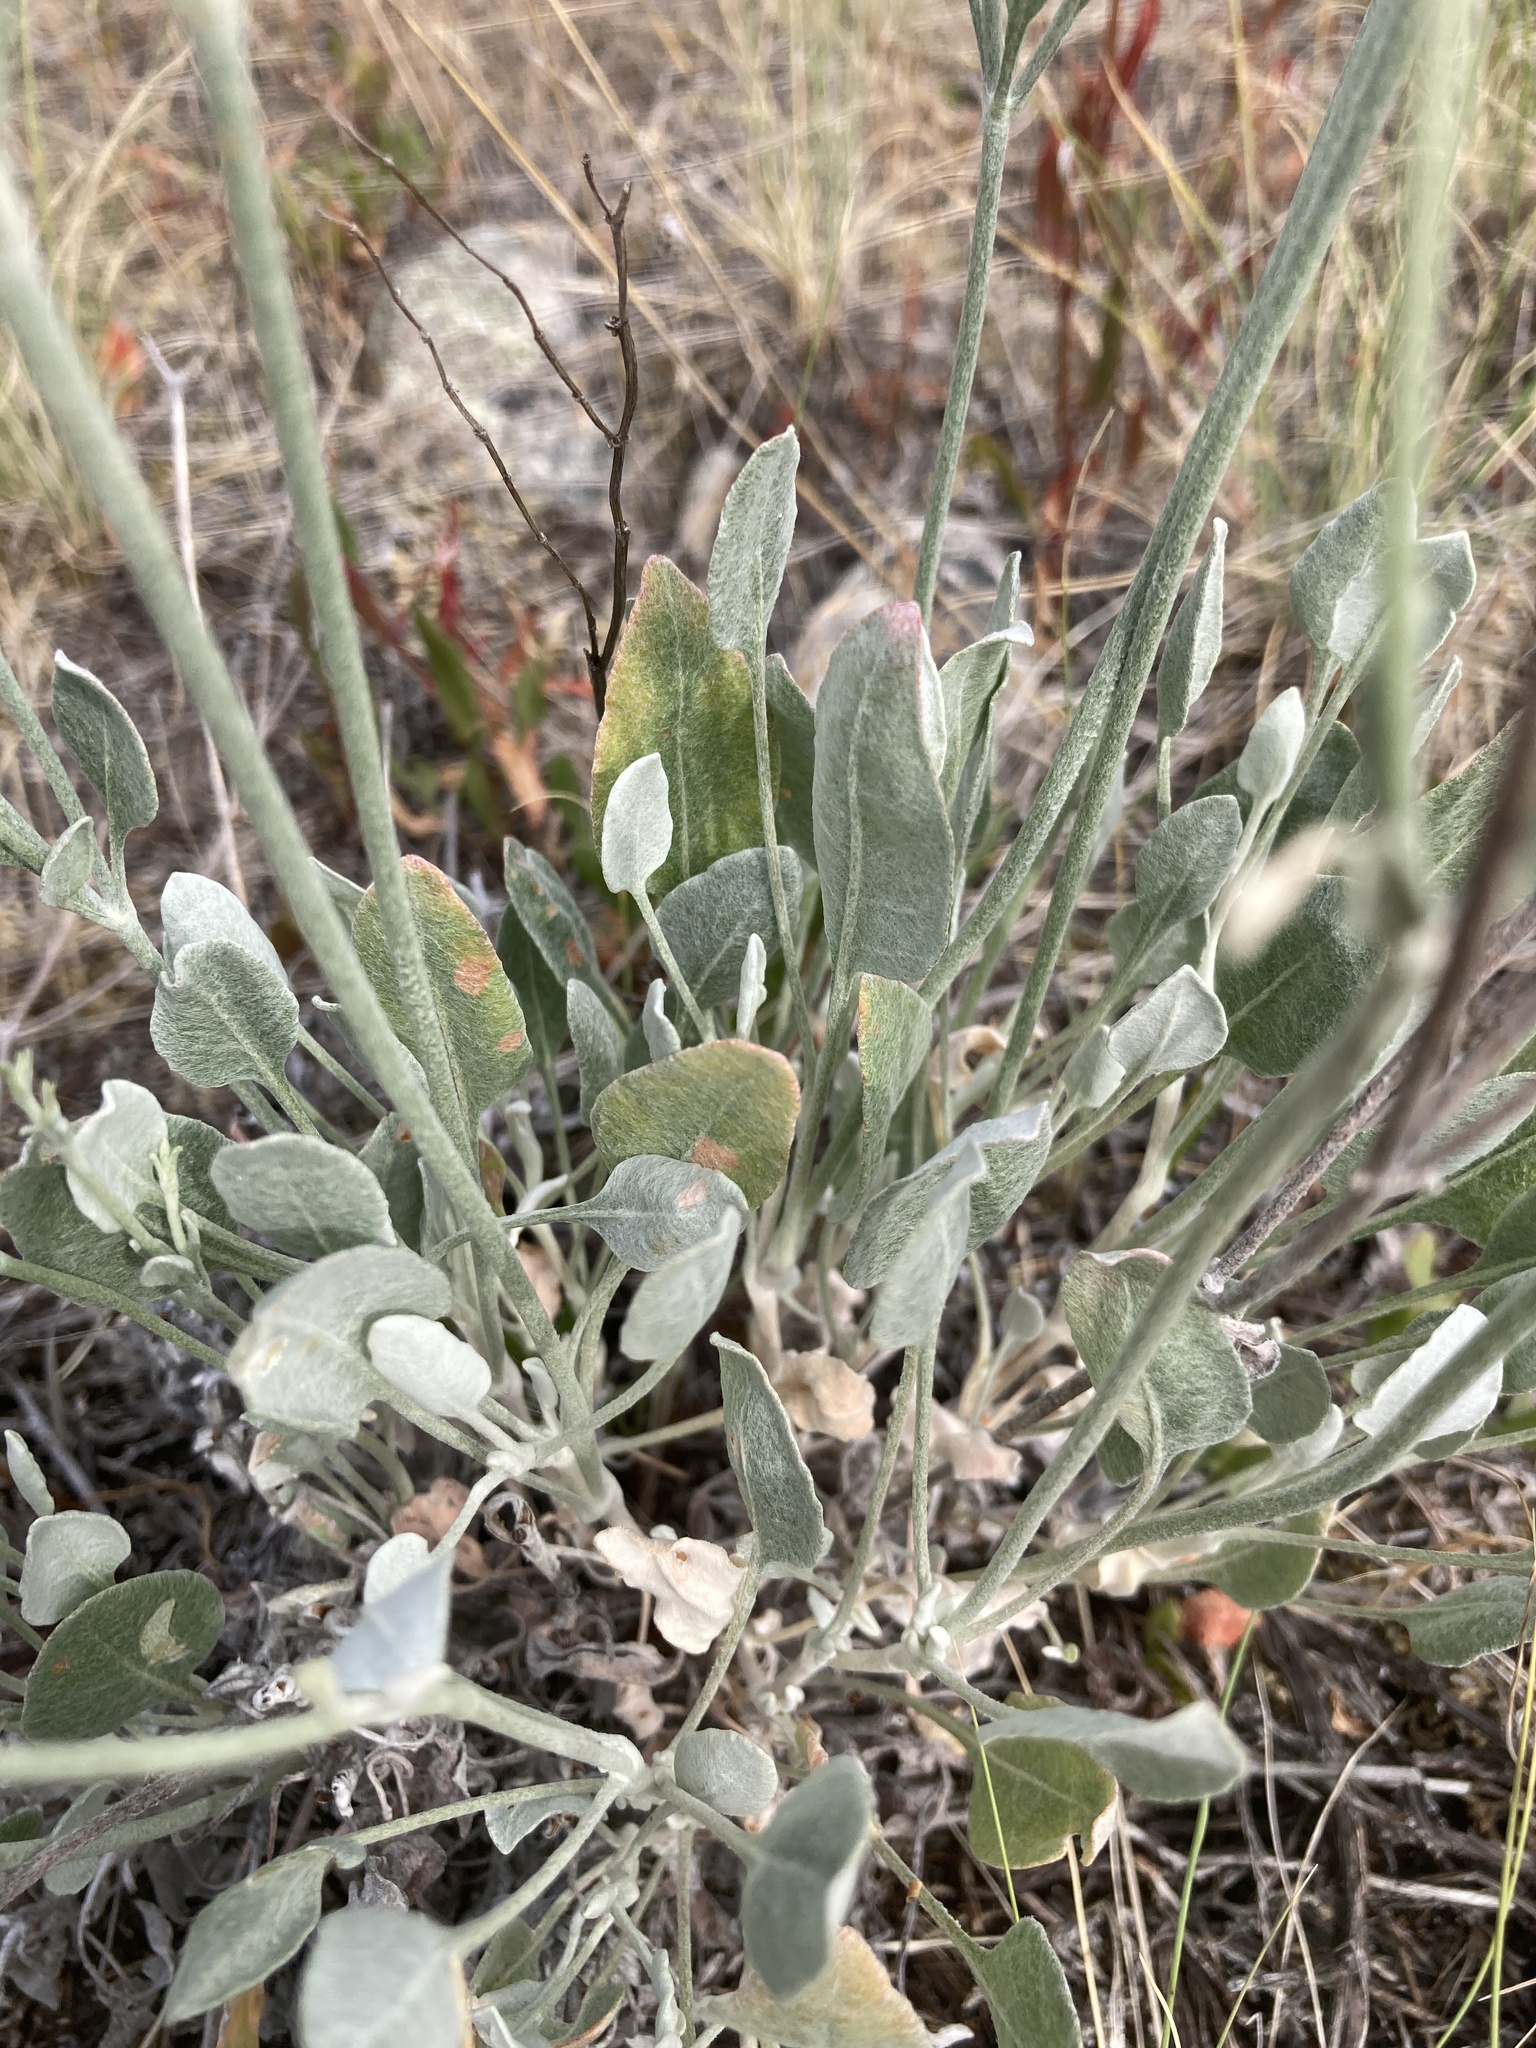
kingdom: Plantae
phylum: Tracheophyta
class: Magnoliopsida
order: Caryophyllales
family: Polygonaceae
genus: Eriogonum
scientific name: Eriogonum niveum
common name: Snow wild buckwheat
